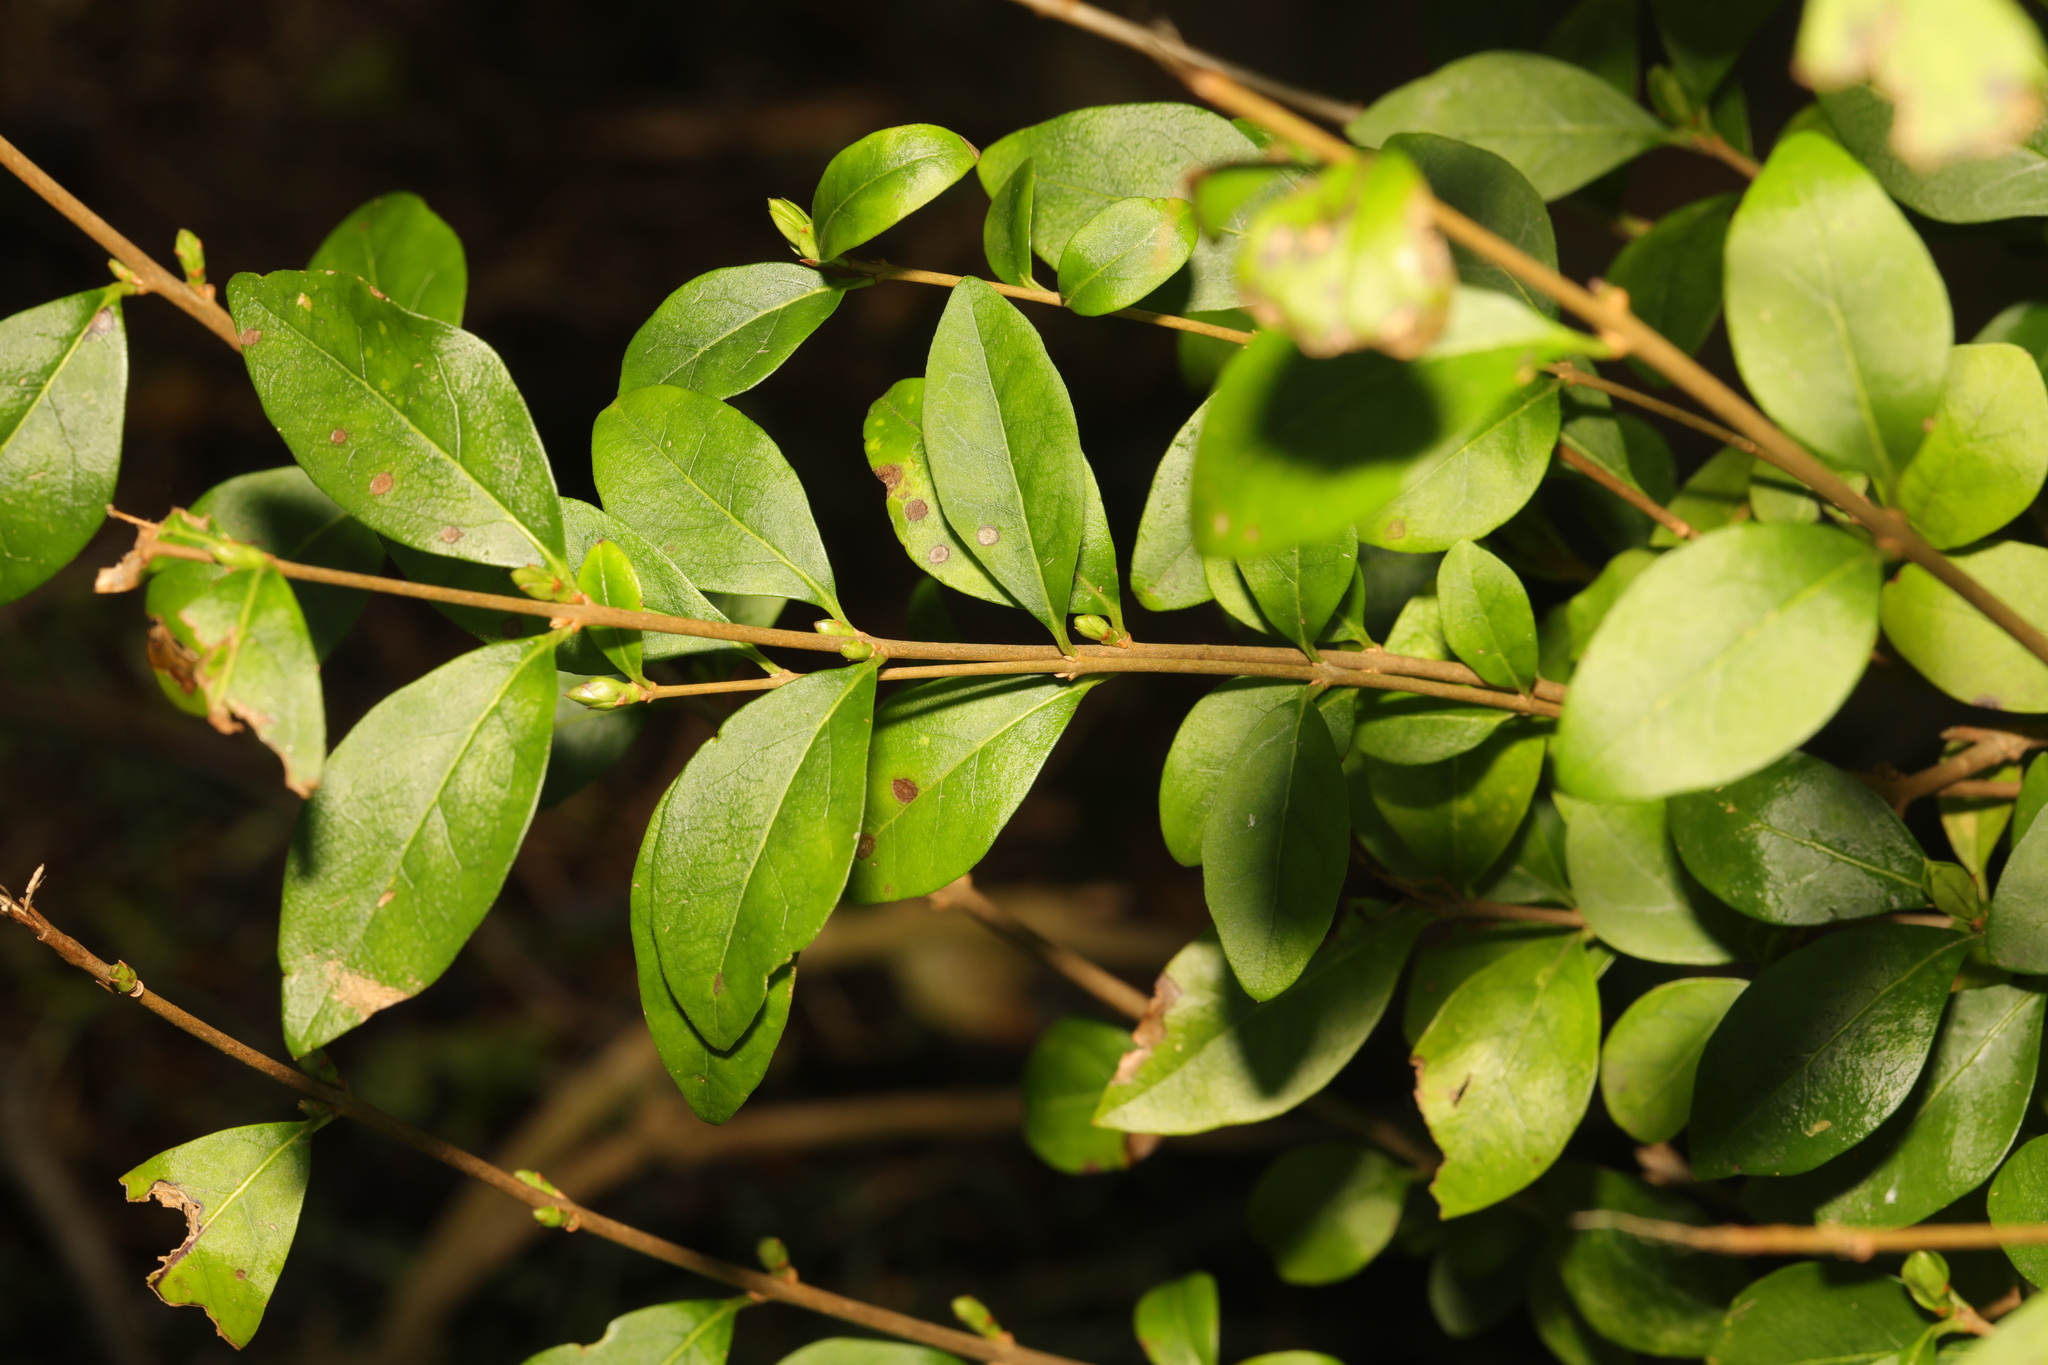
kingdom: Plantae
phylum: Tracheophyta
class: Magnoliopsida
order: Lamiales
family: Oleaceae
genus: Ligustrum
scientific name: Ligustrum ovalifolium
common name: California privet
